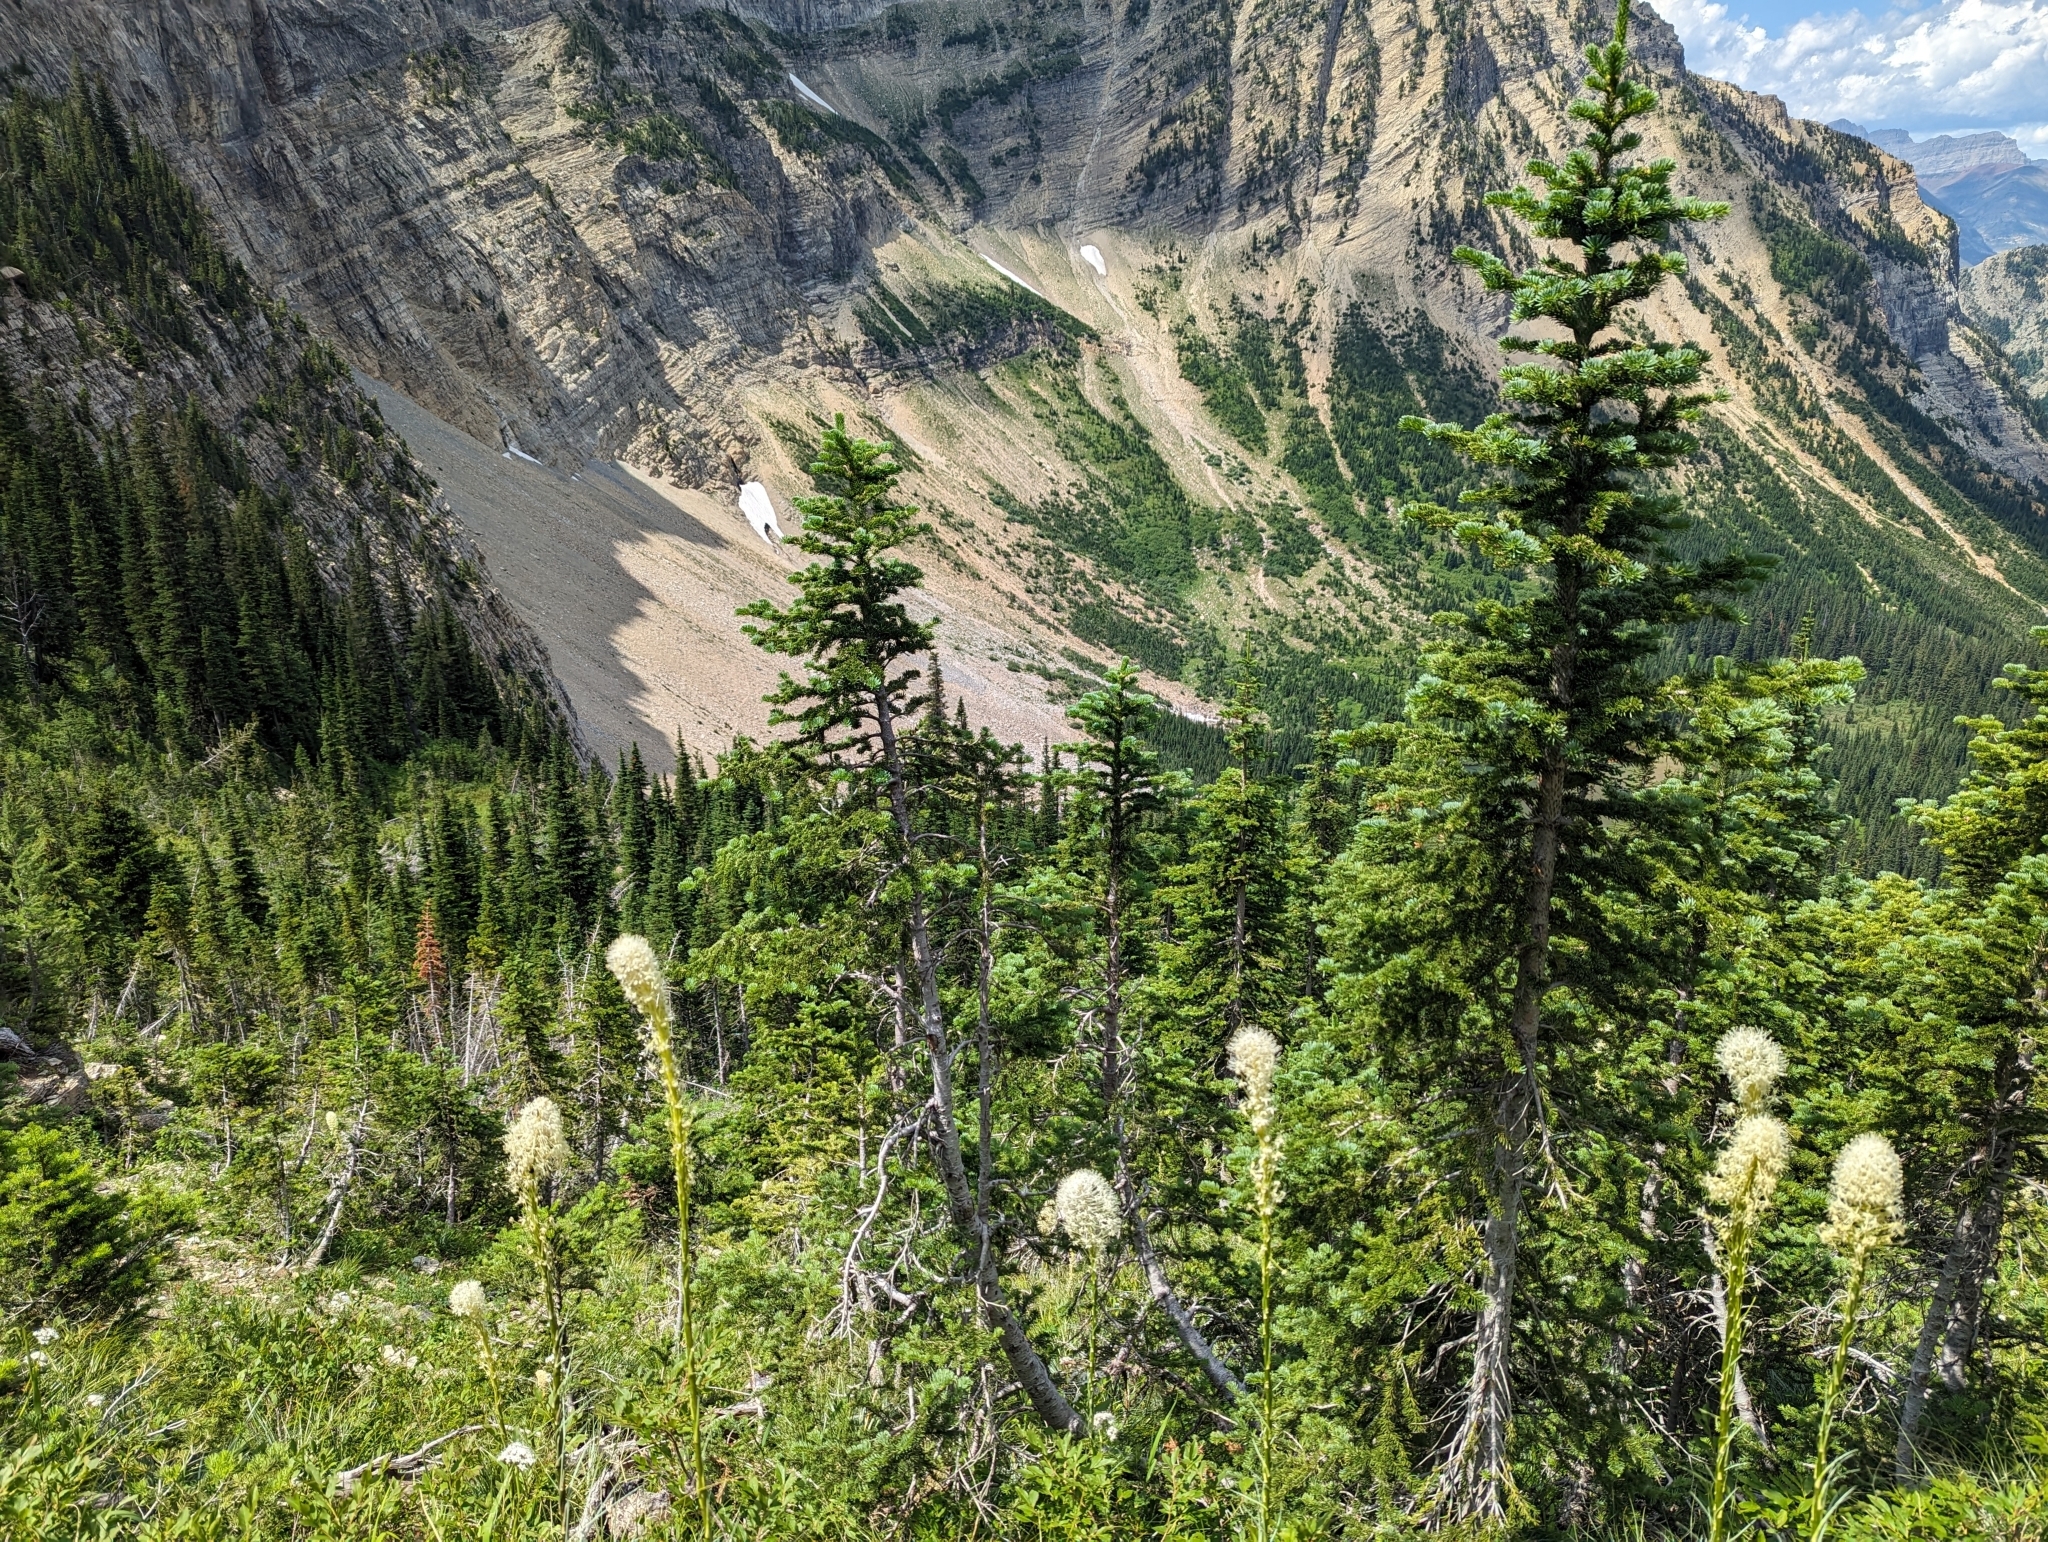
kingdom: Plantae
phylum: Tracheophyta
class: Liliopsida
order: Liliales
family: Melanthiaceae
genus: Xerophyllum
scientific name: Xerophyllum tenax
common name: Bear-grass
